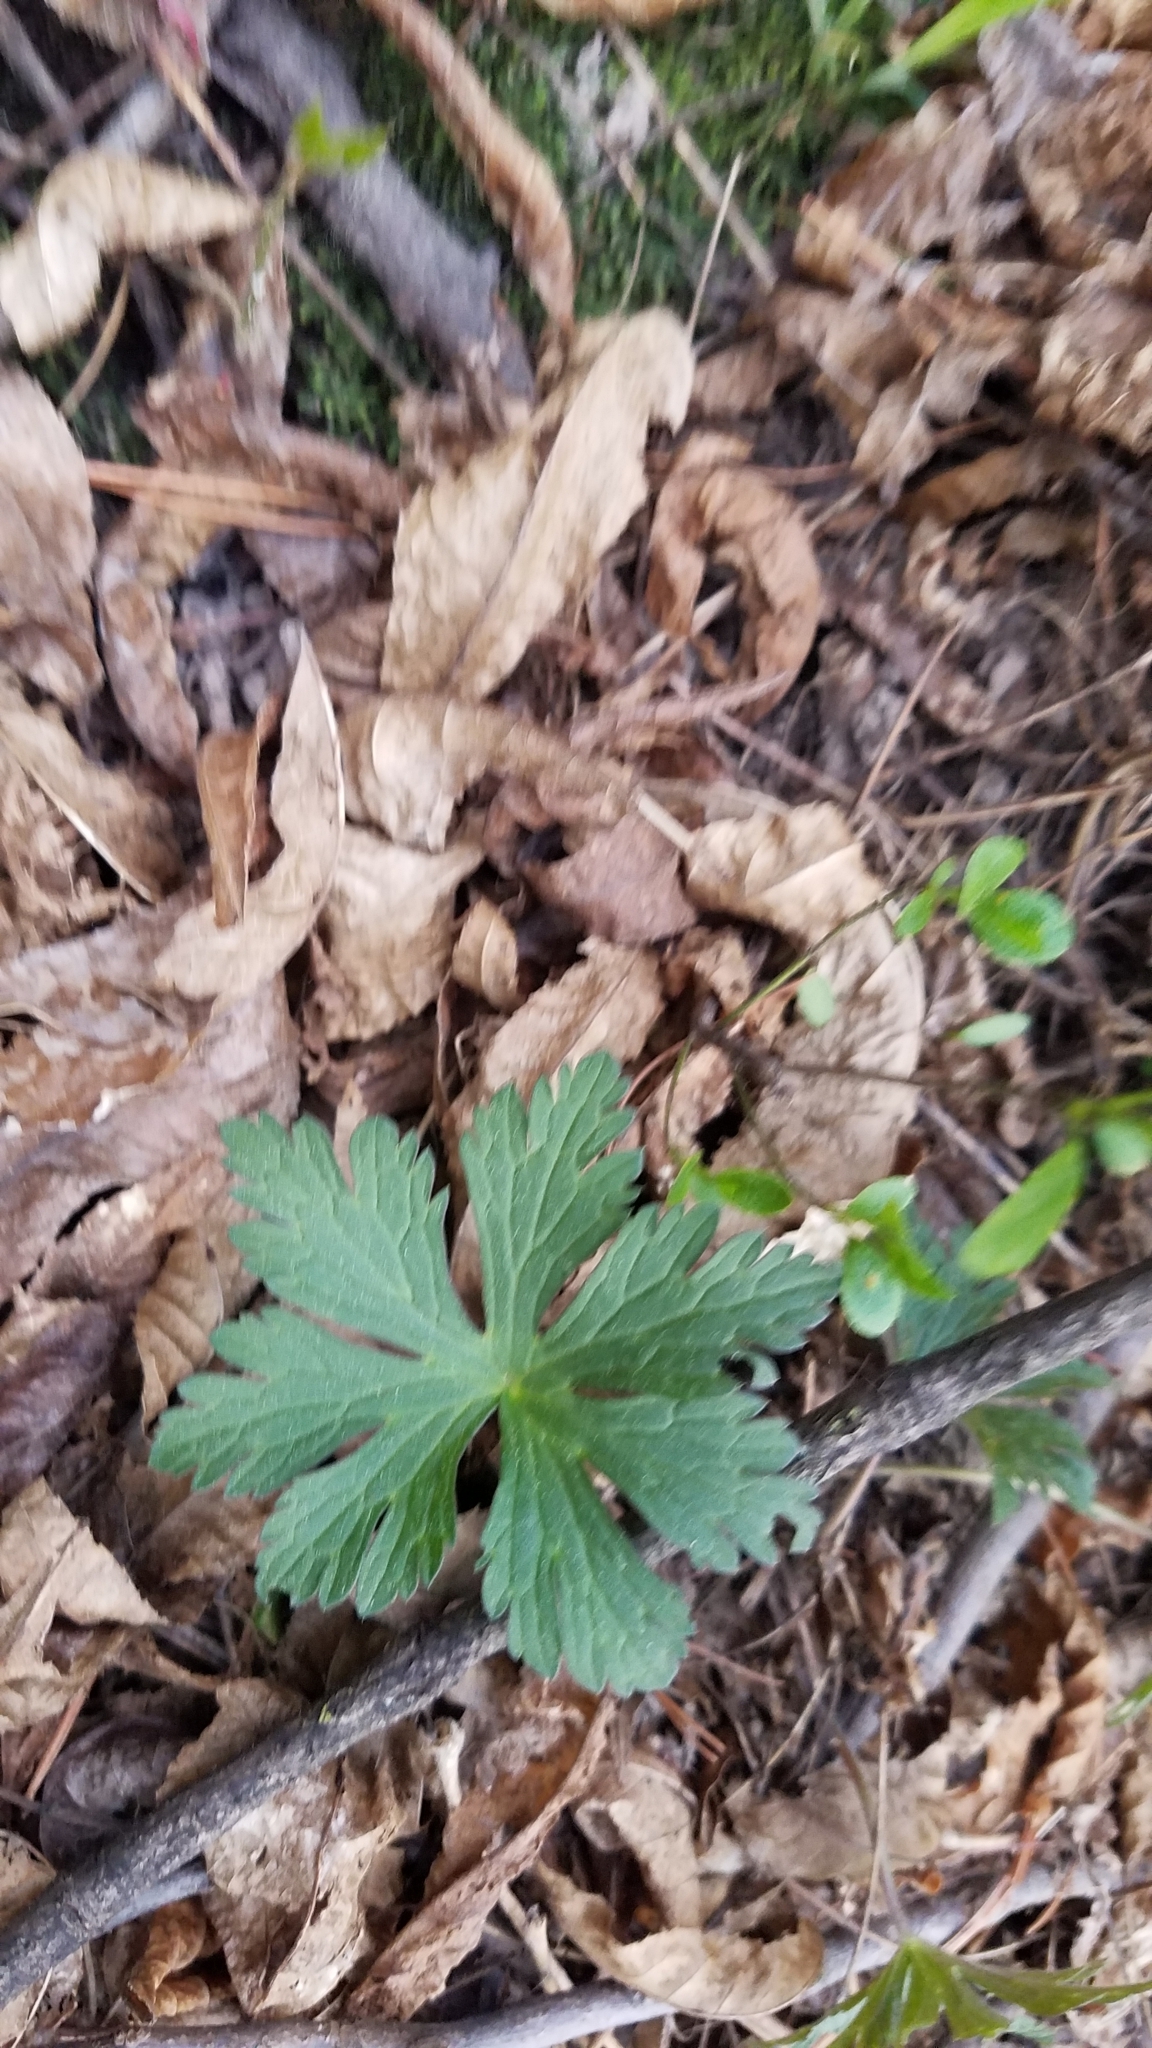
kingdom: Plantae
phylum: Tracheophyta
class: Magnoliopsida
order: Geraniales
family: Geraniaceae
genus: Geranium
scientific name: Geranium maculatum
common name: Spotted geranium
